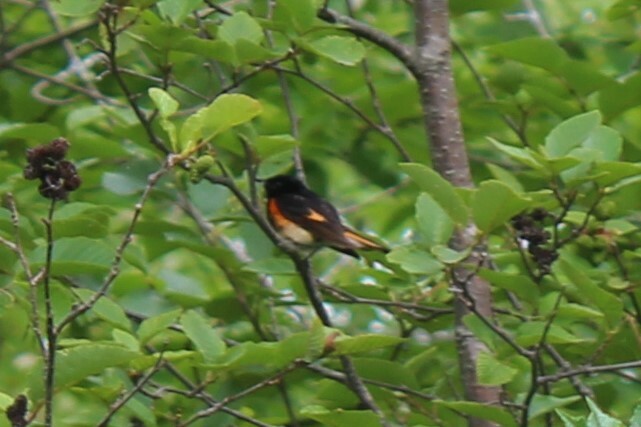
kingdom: Animalia
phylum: Chordata
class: Aves
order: Passeriformes
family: Parulidae
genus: Setophaga
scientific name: Setophaga ruticilla
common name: American redstart
